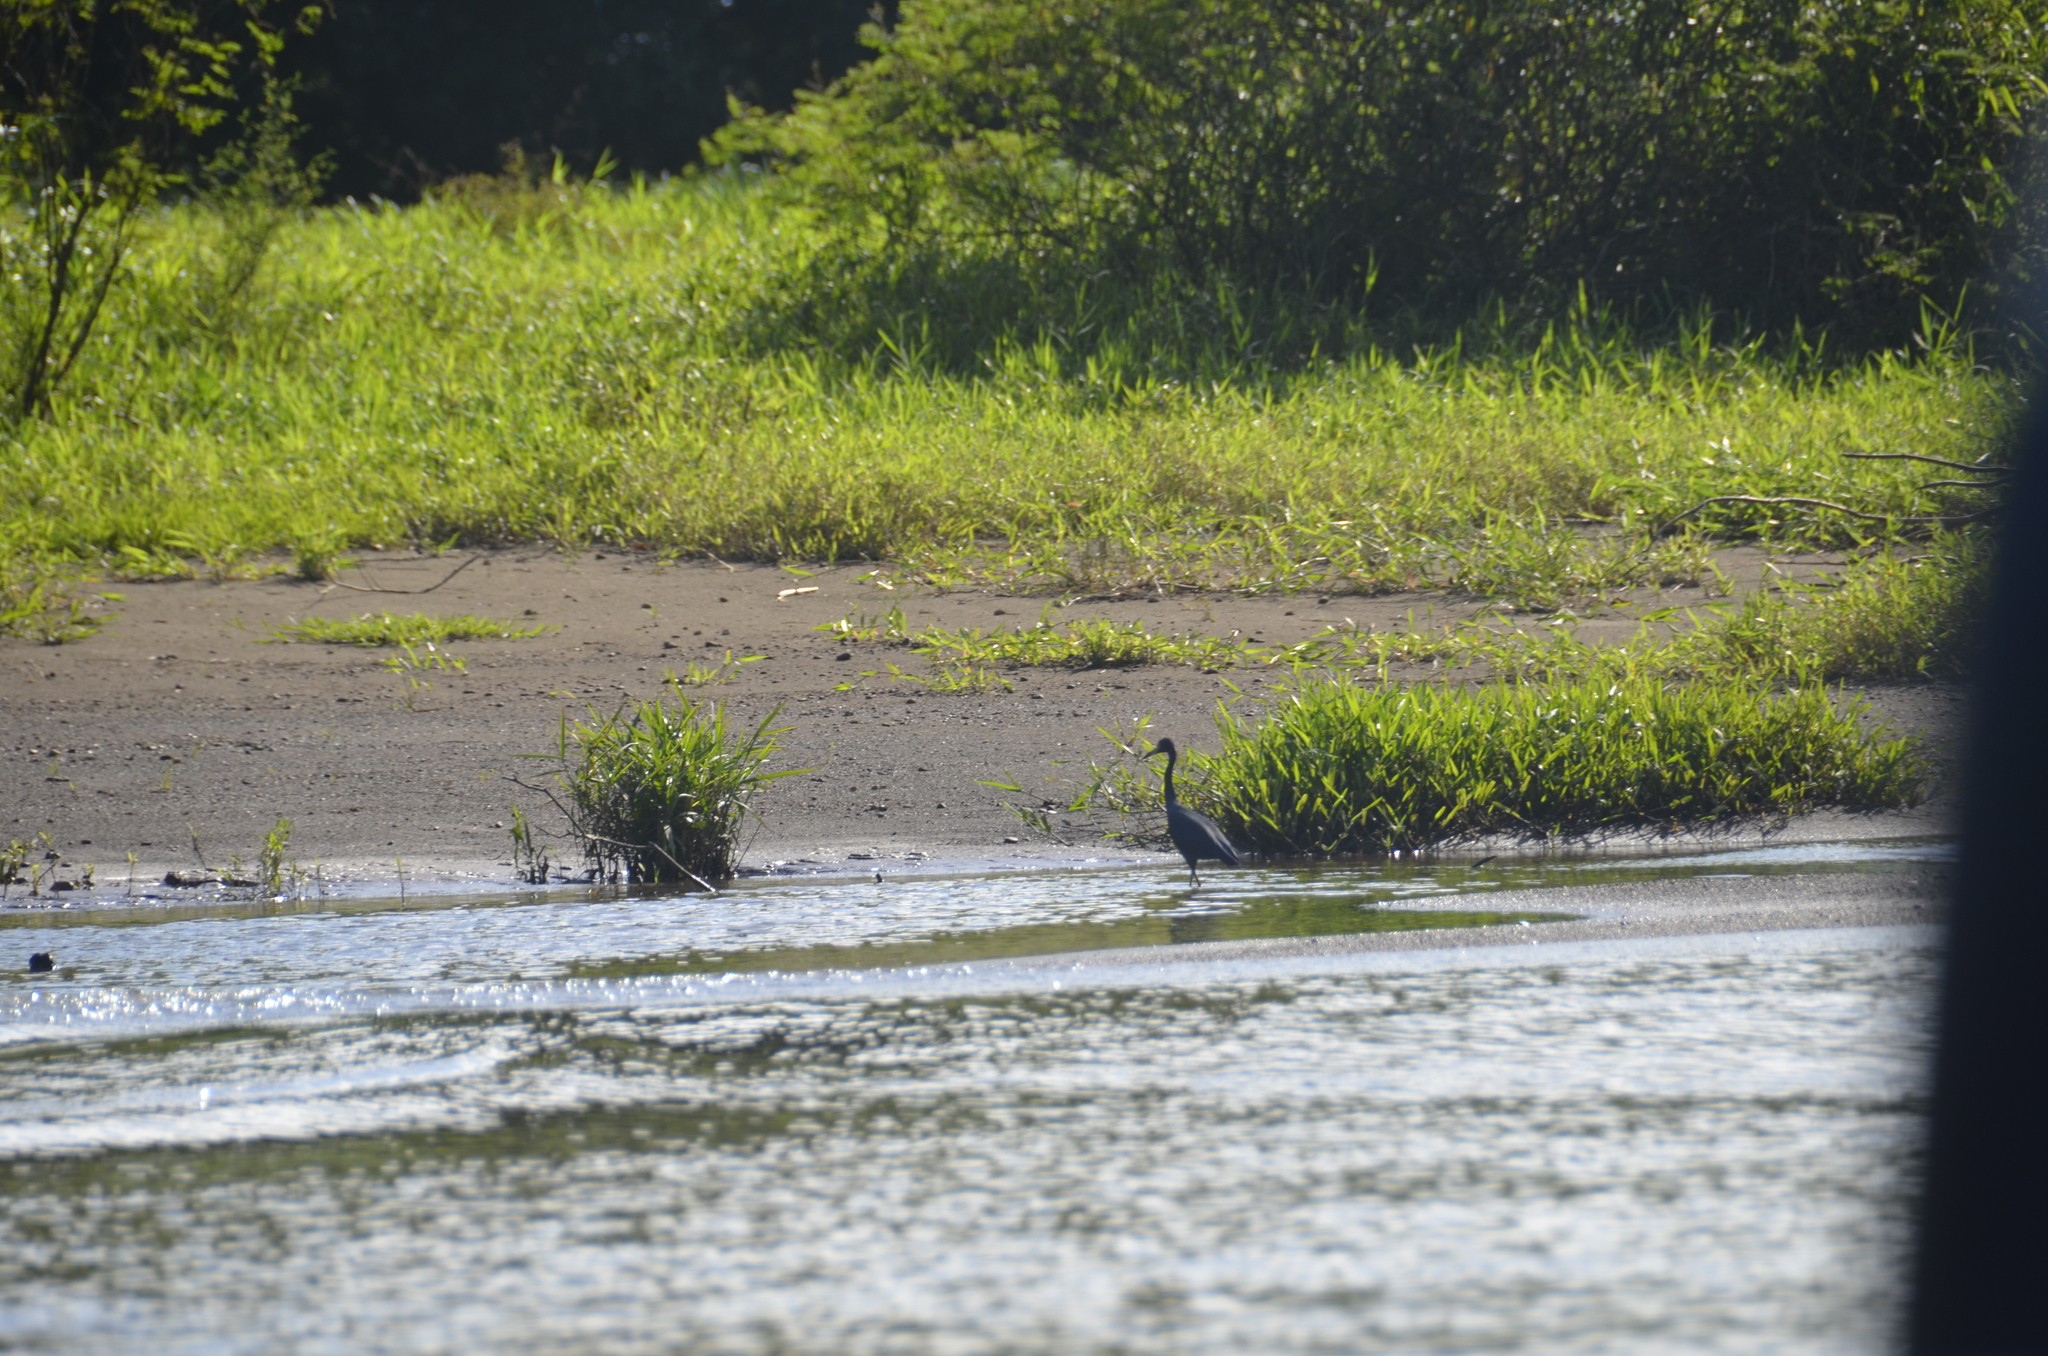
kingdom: Animalia
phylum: Chordata
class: Aves
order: Pelecaniformes
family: Ardeidae
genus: Egretta
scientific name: Egretta caerulea
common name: Little blue heron
